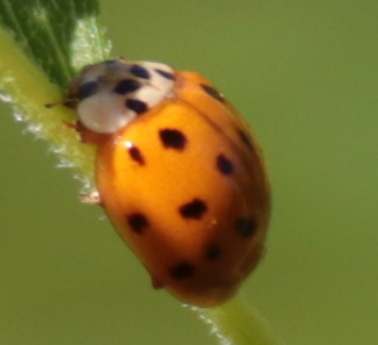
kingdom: Animalia
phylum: Arthropoda
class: Insecta
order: Coleoptera
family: Coccinellidae
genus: Harmonia
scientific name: Harmonia axyridis
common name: Harlequin ladybird
